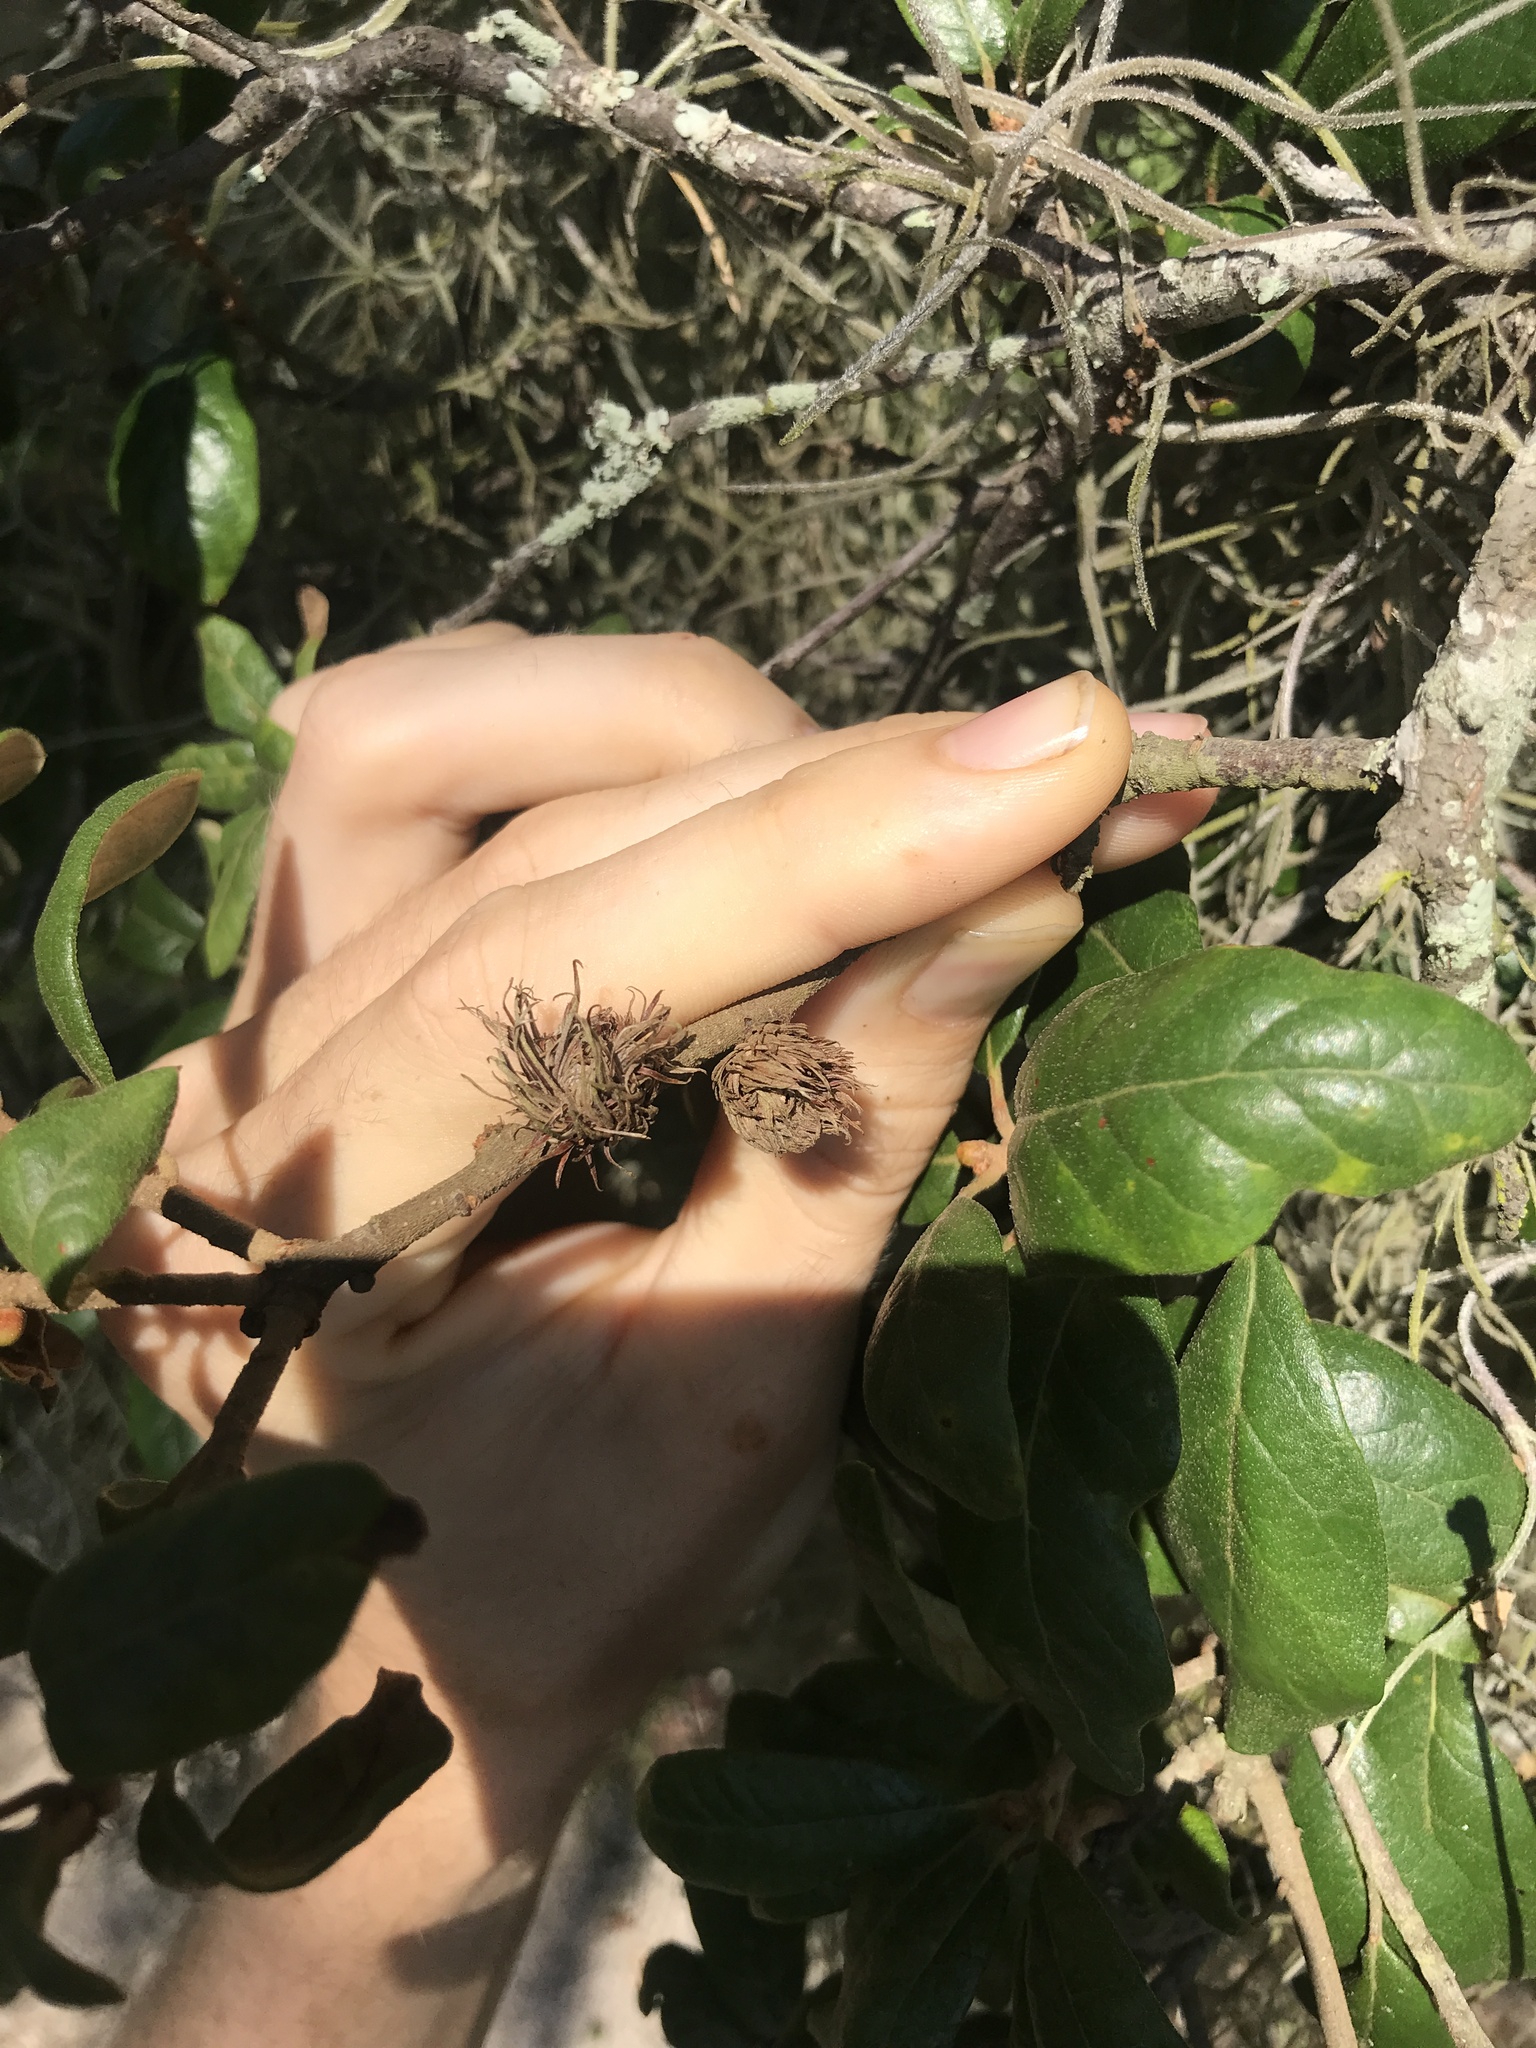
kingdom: Animalia
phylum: Arthropoda
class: Insecta
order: Hymenoptera
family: Cynipidae
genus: Andricus
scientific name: Andricus quercusfoliatus
